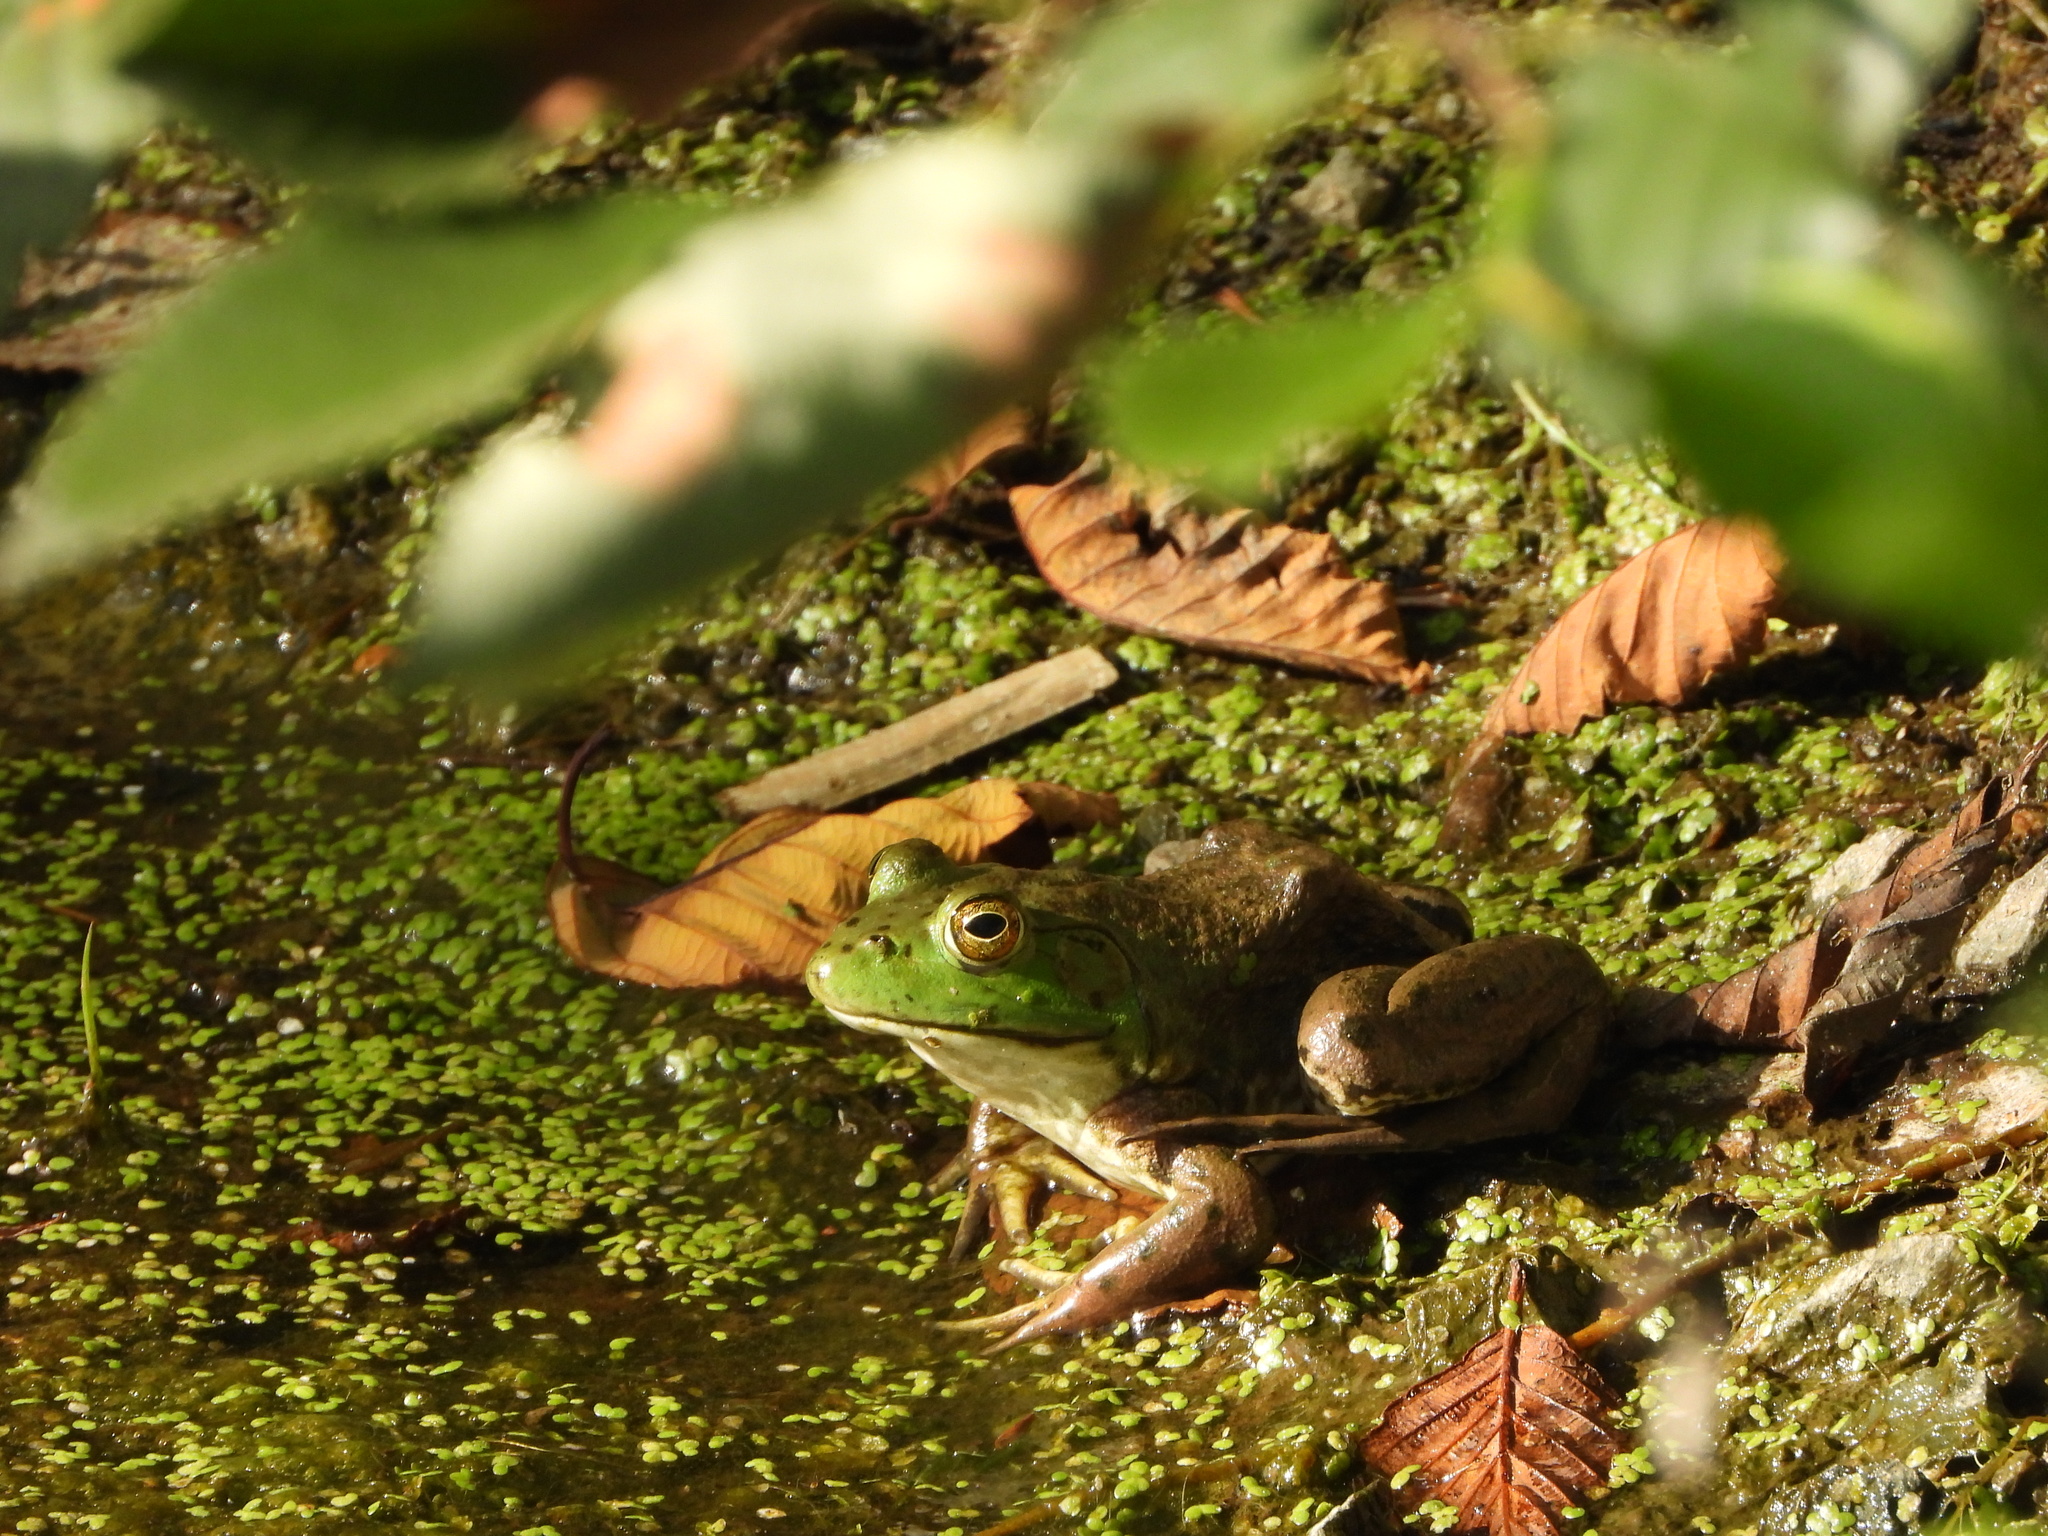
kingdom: Animalia
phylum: Chordata
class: Amphibia
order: Anura
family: Ranidae
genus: Lithobates
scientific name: Lithobates catesbeianus
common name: American bullfrog
